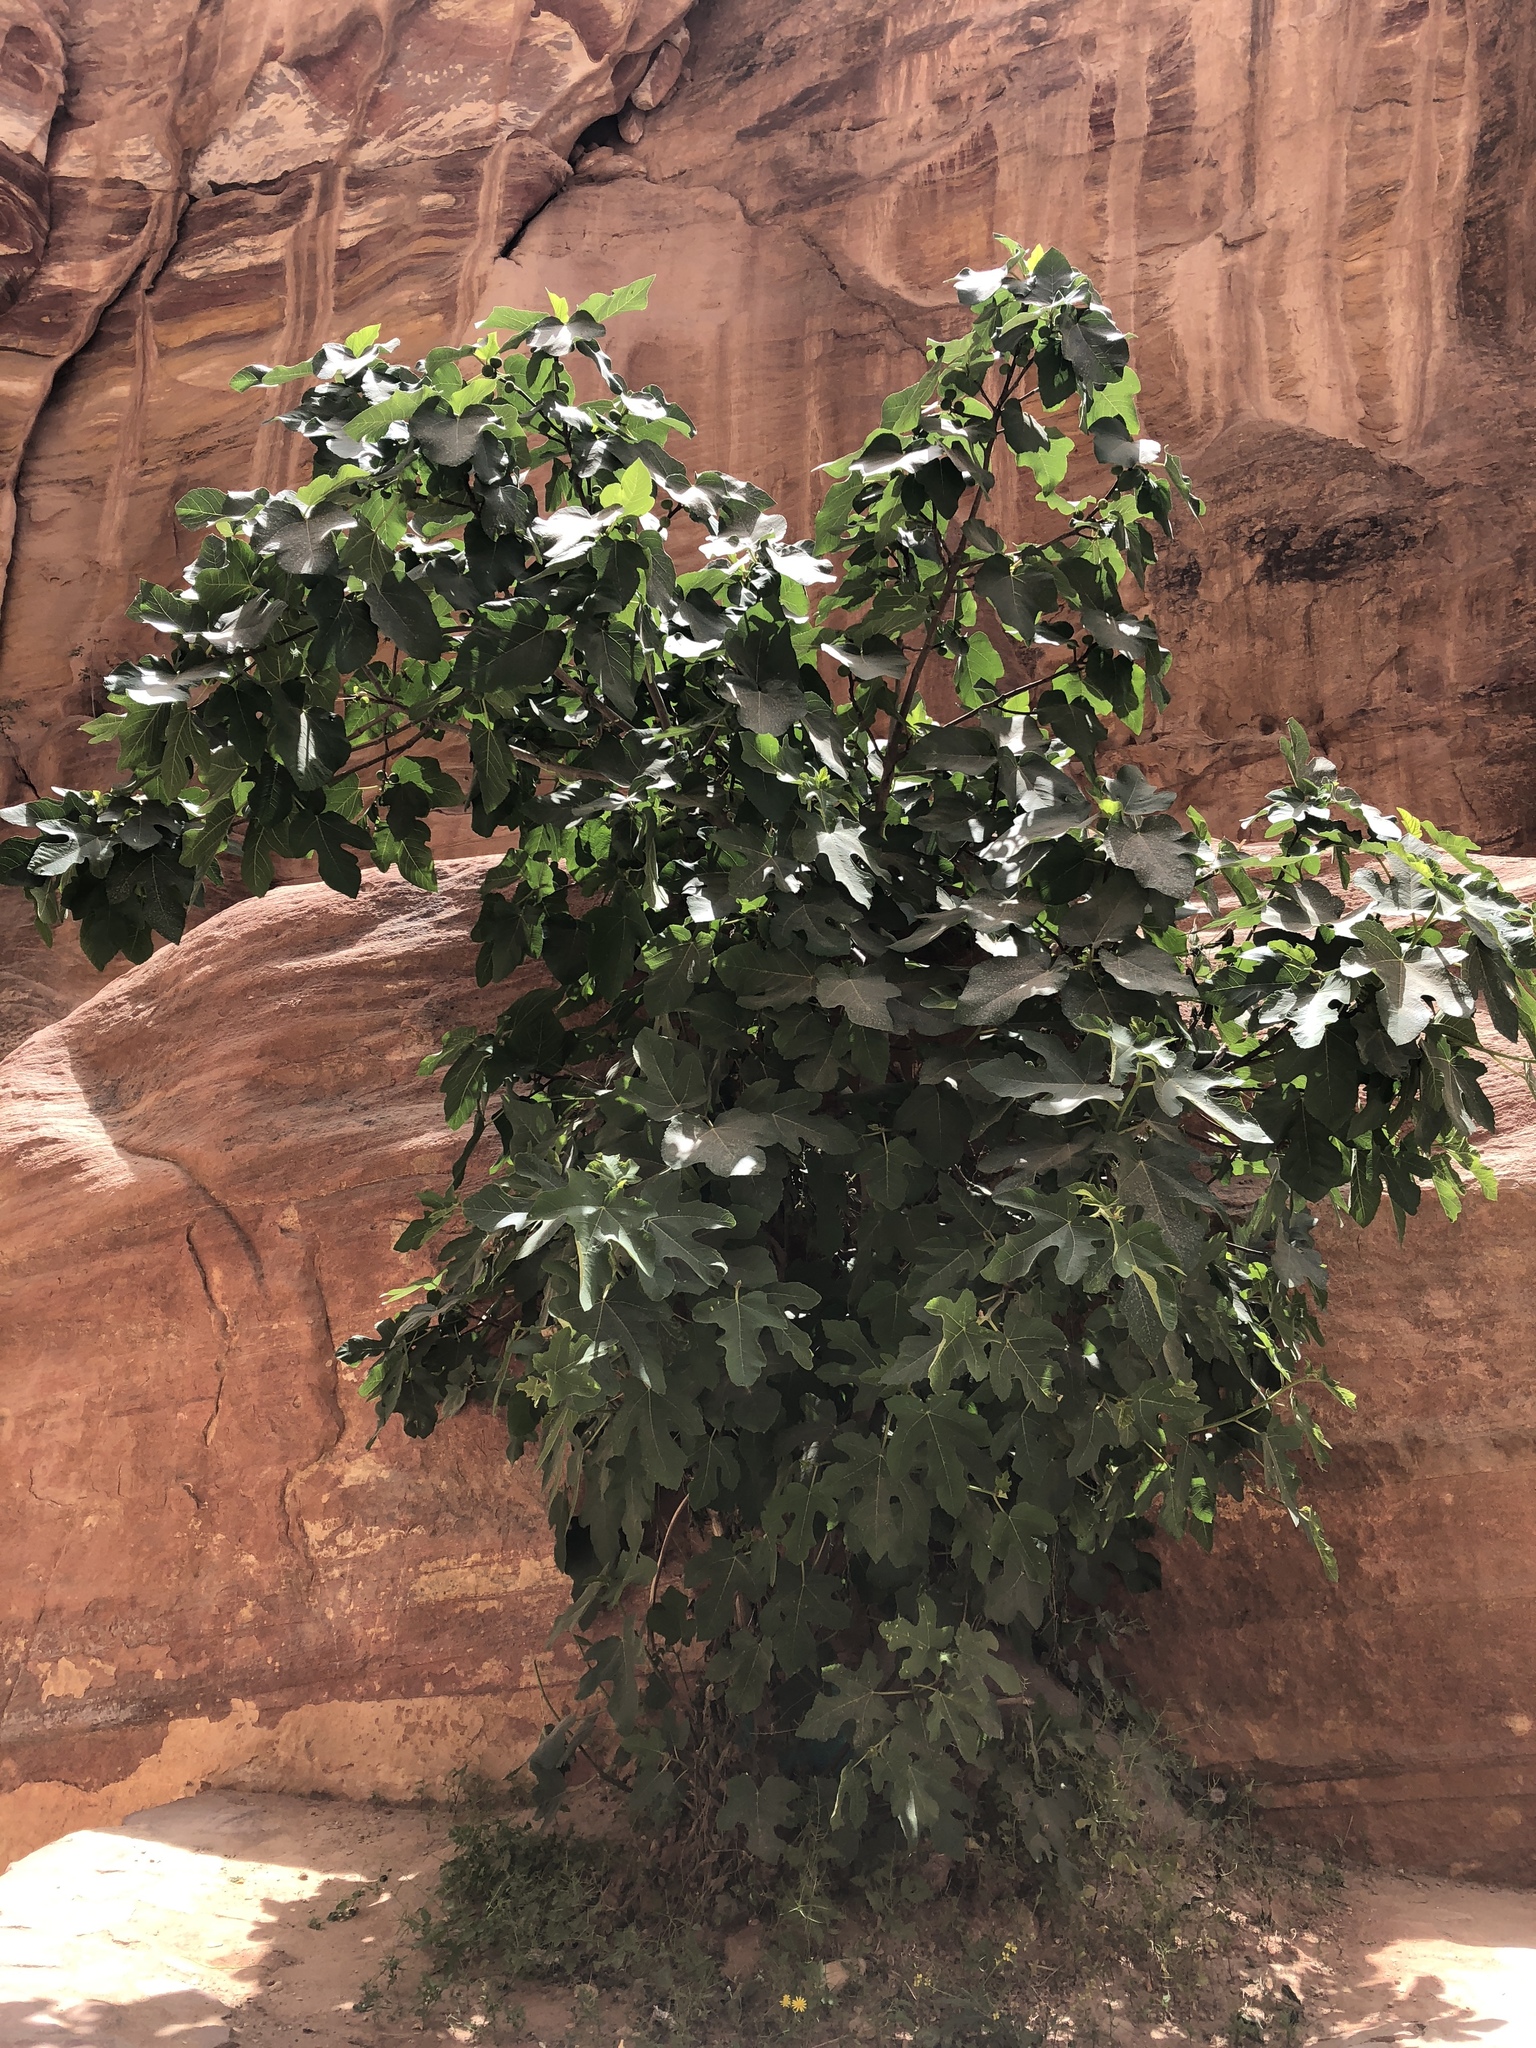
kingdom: Plantae
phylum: Tracheophyta
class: Magnoliopsida
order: Rosales
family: Moraceae
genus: Ficus
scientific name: Ficus carica
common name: Fig
